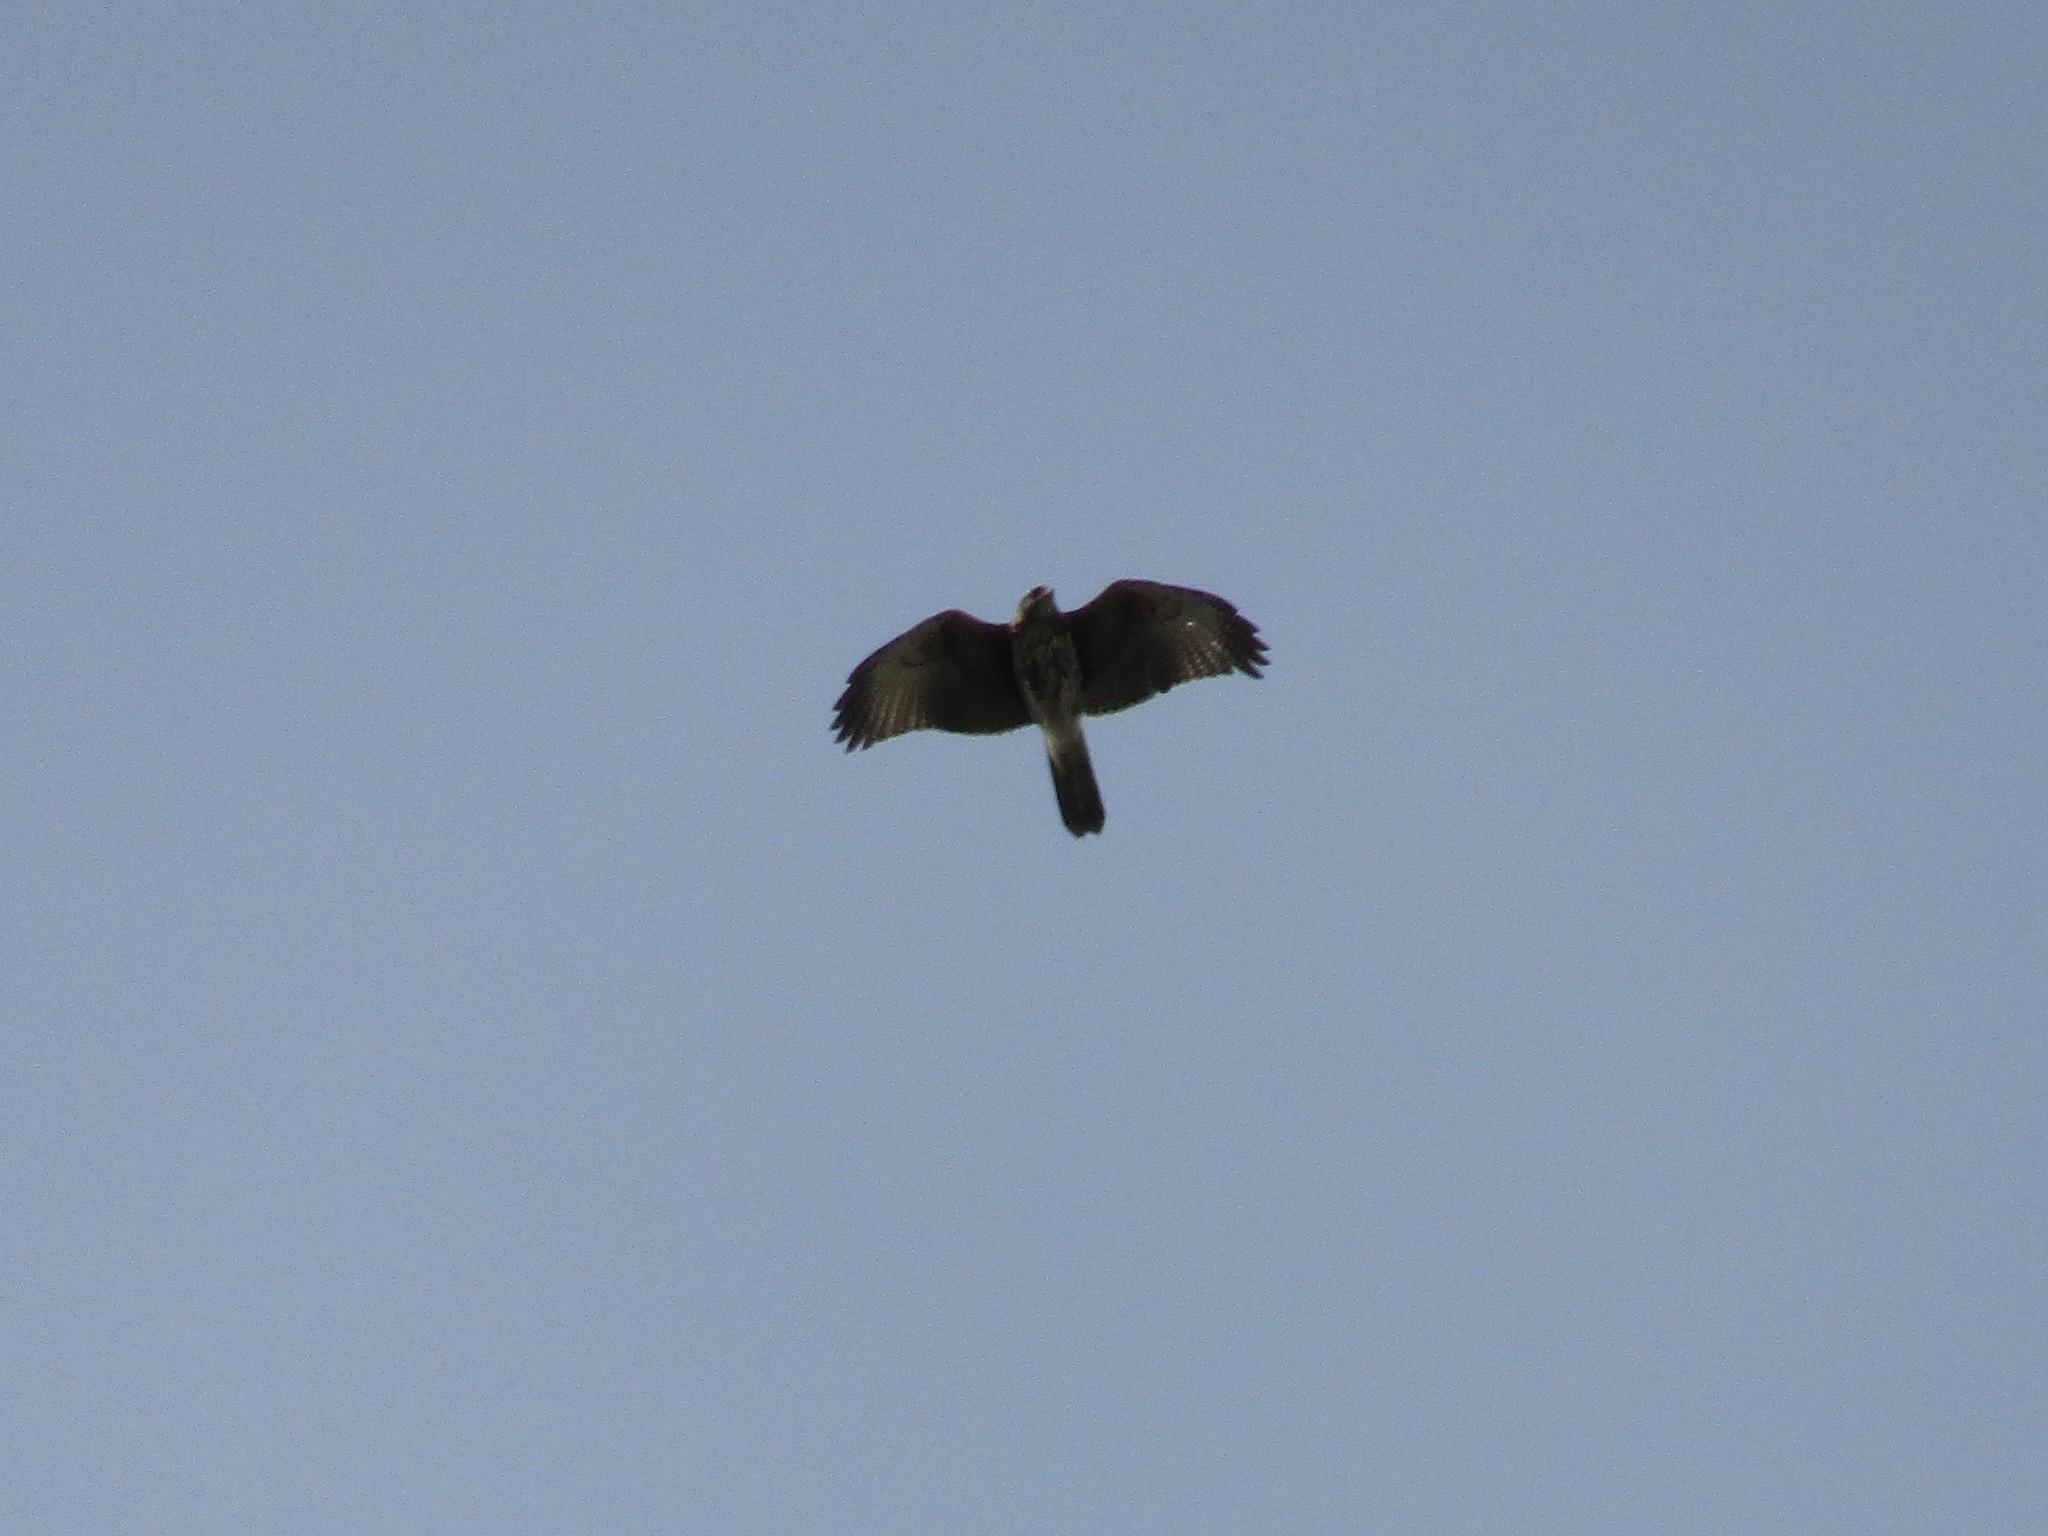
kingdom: Animalia
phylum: Chordata
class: Aves
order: Accipitriformes
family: Accipitridae
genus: Parabuteo
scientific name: Parabuteo unicinctus
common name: Harris's hawk
